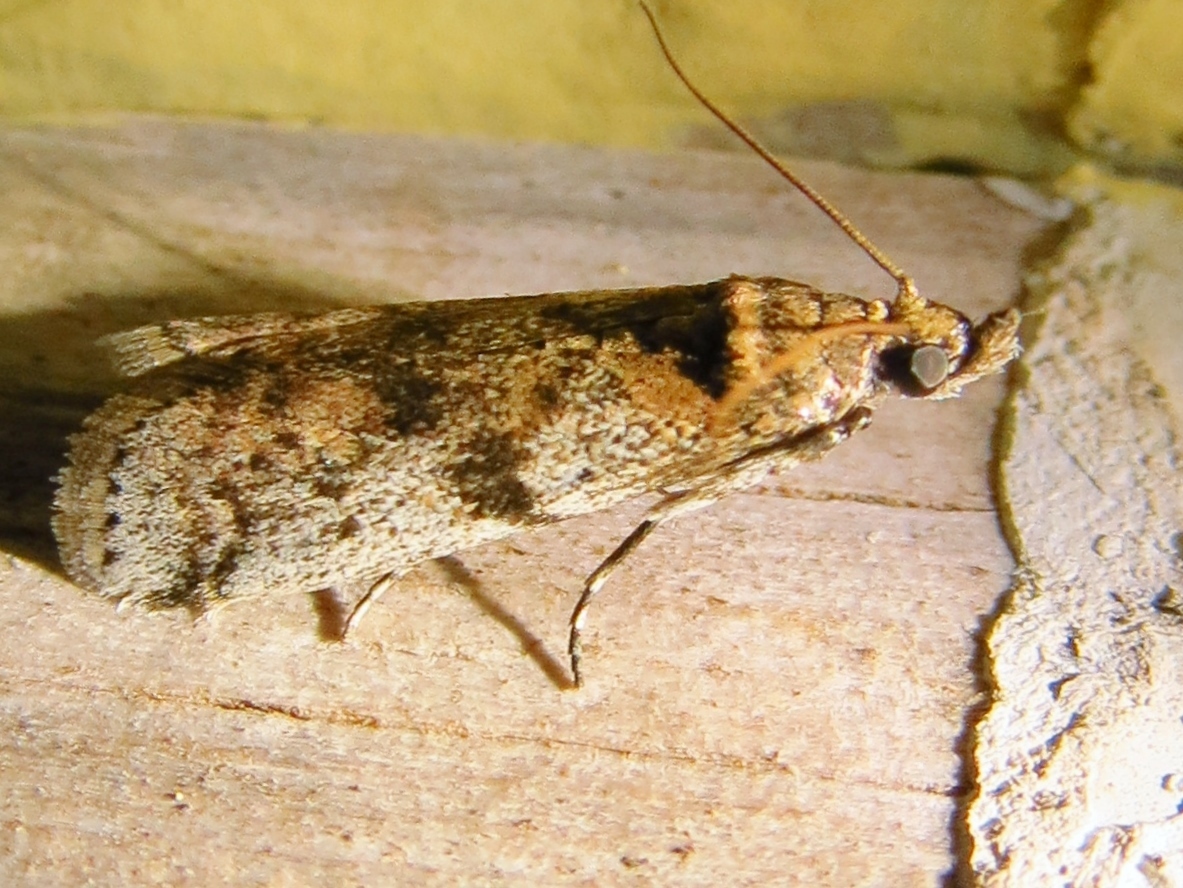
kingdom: Animalia
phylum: Arthropoda
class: Insecta
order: Lepidoptera
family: Pyralidae
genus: Laetilia
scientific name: Laetilia coccidivora
